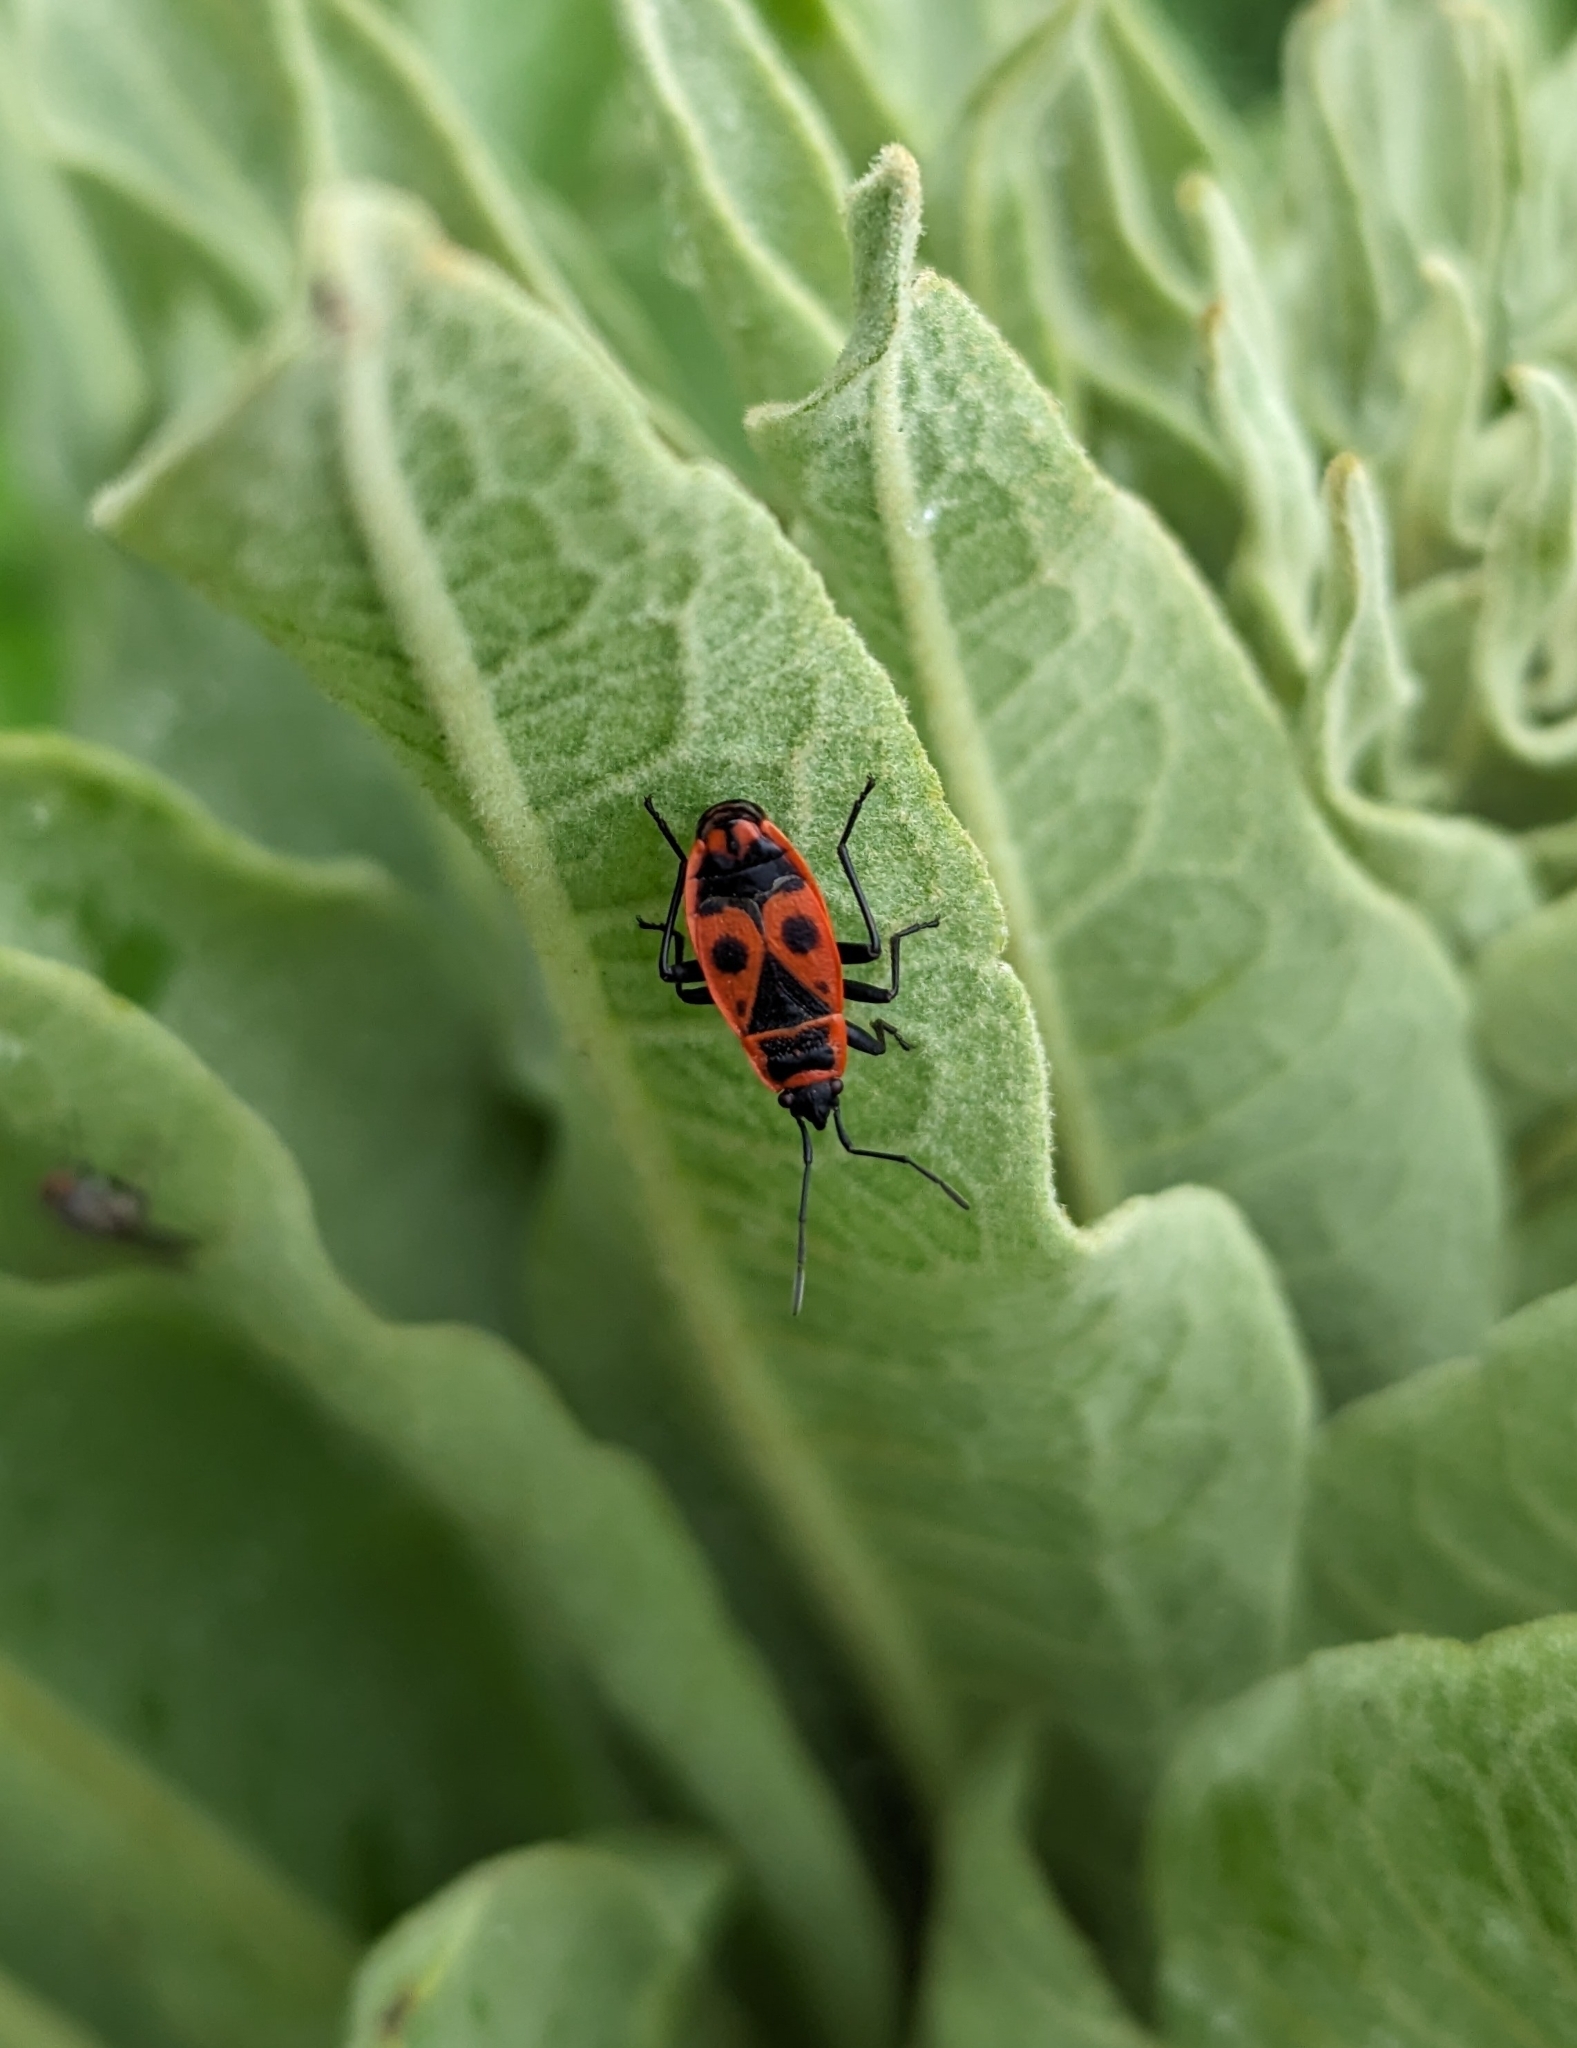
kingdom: Animalia
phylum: Arthropoda
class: Insecta
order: Hemiptera
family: Pyrrhocoridae
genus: Pyrrhocoris
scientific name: Pyrrhocoris apterus
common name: Firebug
